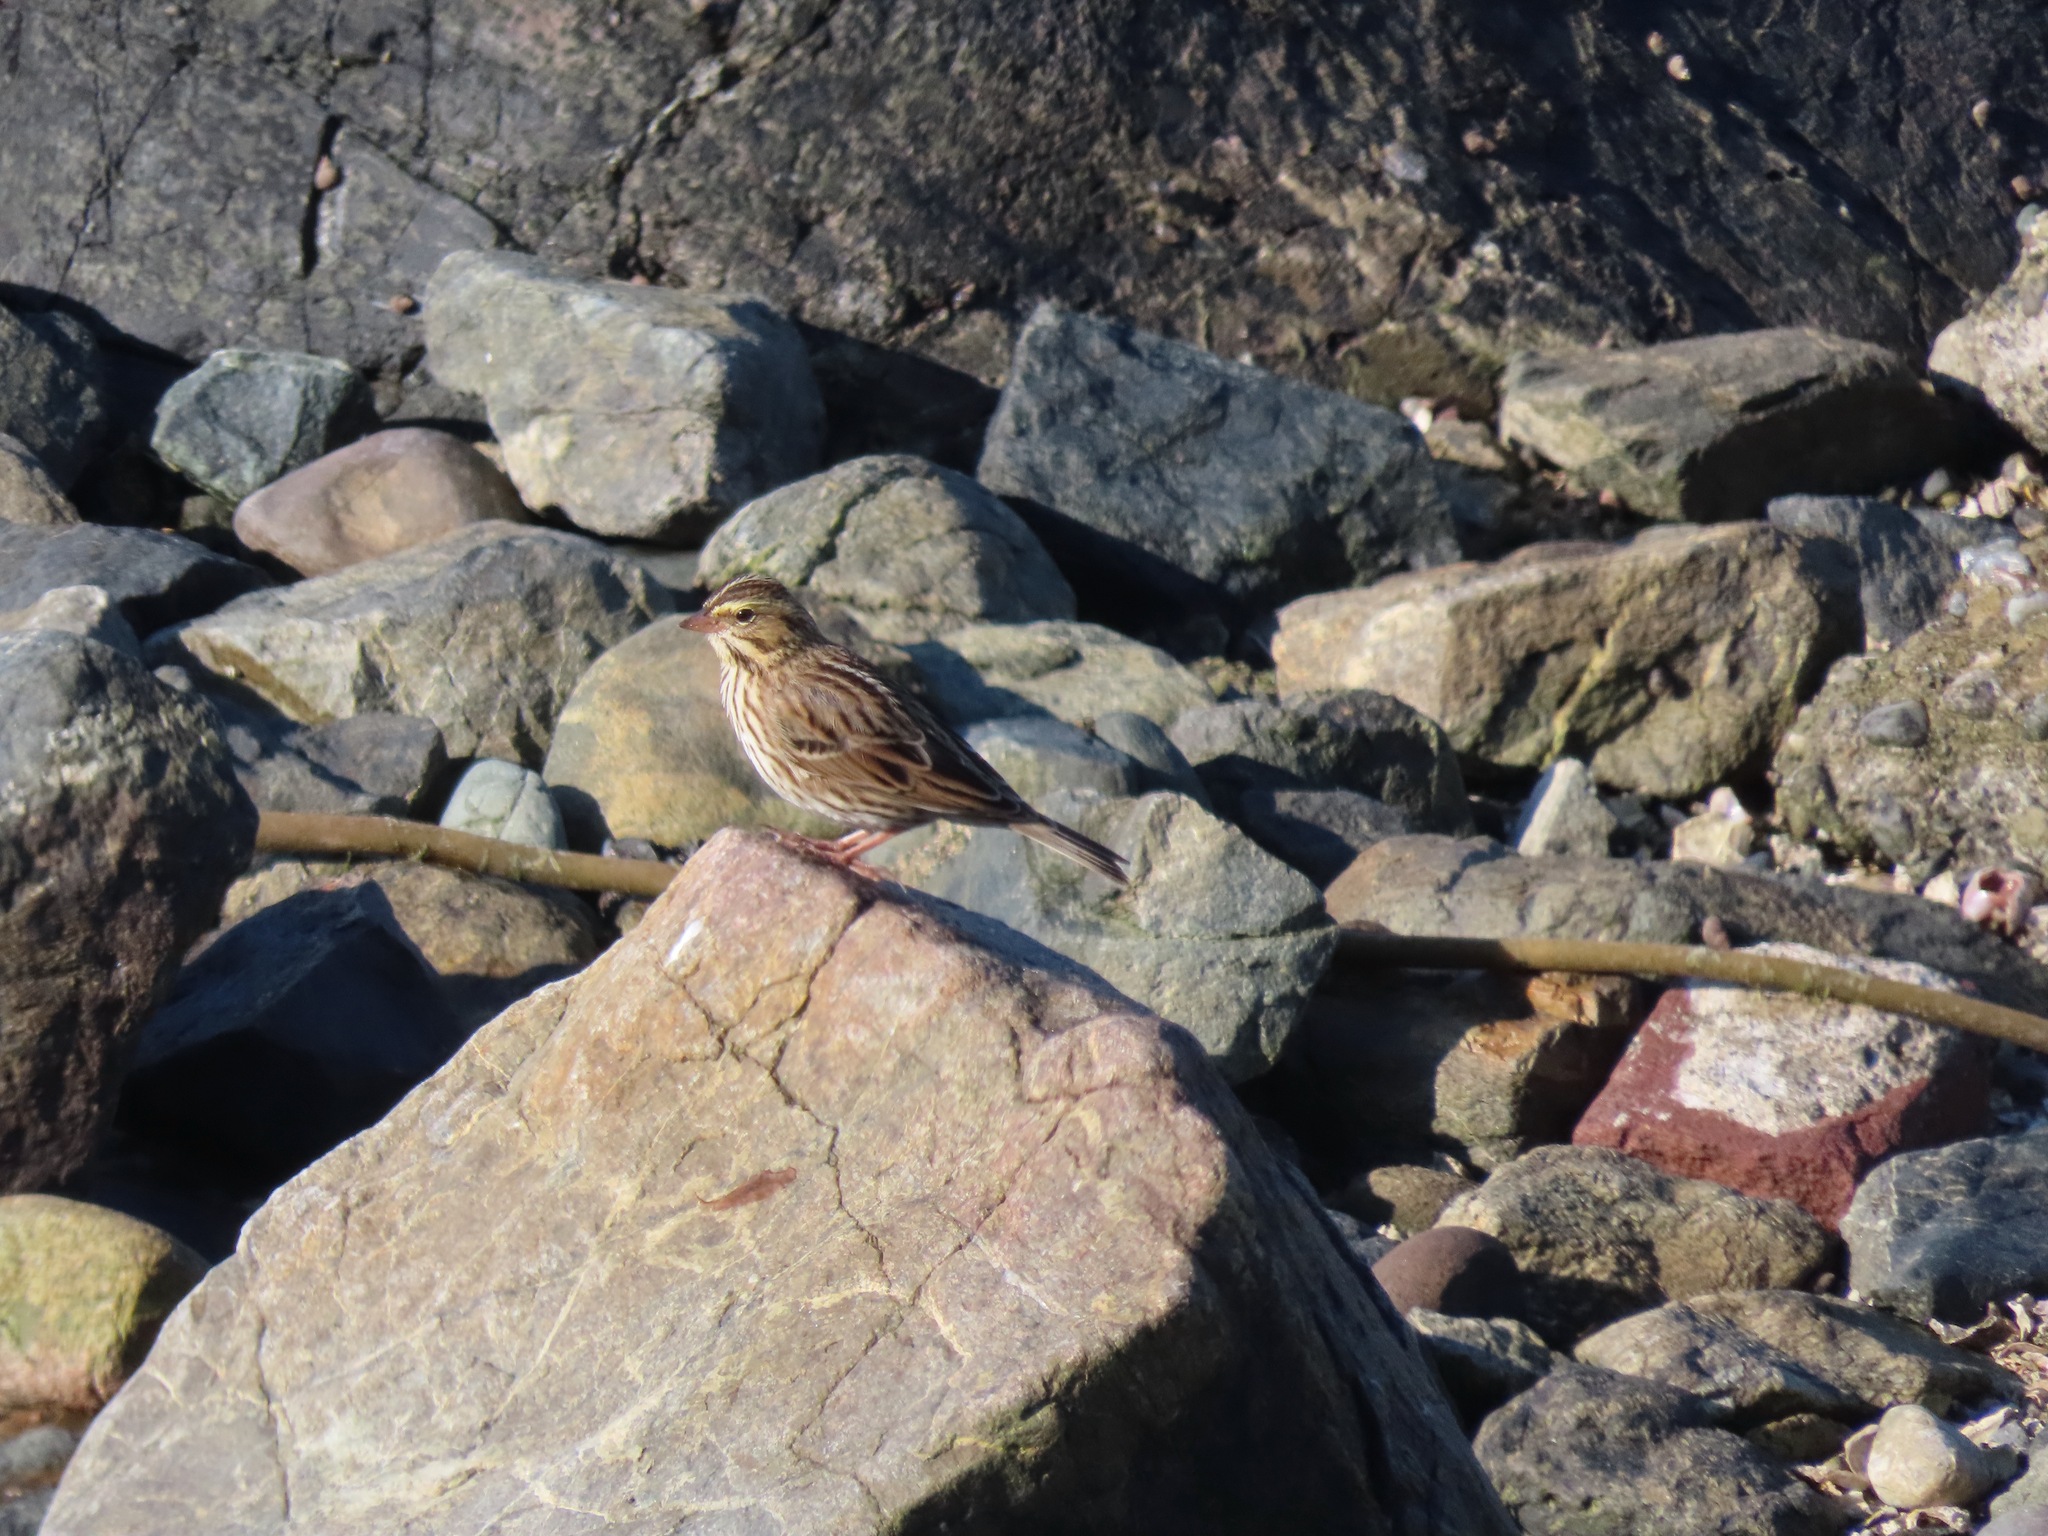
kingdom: Animalia
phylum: Chordata
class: Aves
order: Passeriformes
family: Passerellidae
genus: Passerculus
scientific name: Passerculus sandwichensis
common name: Savannah sparrow
